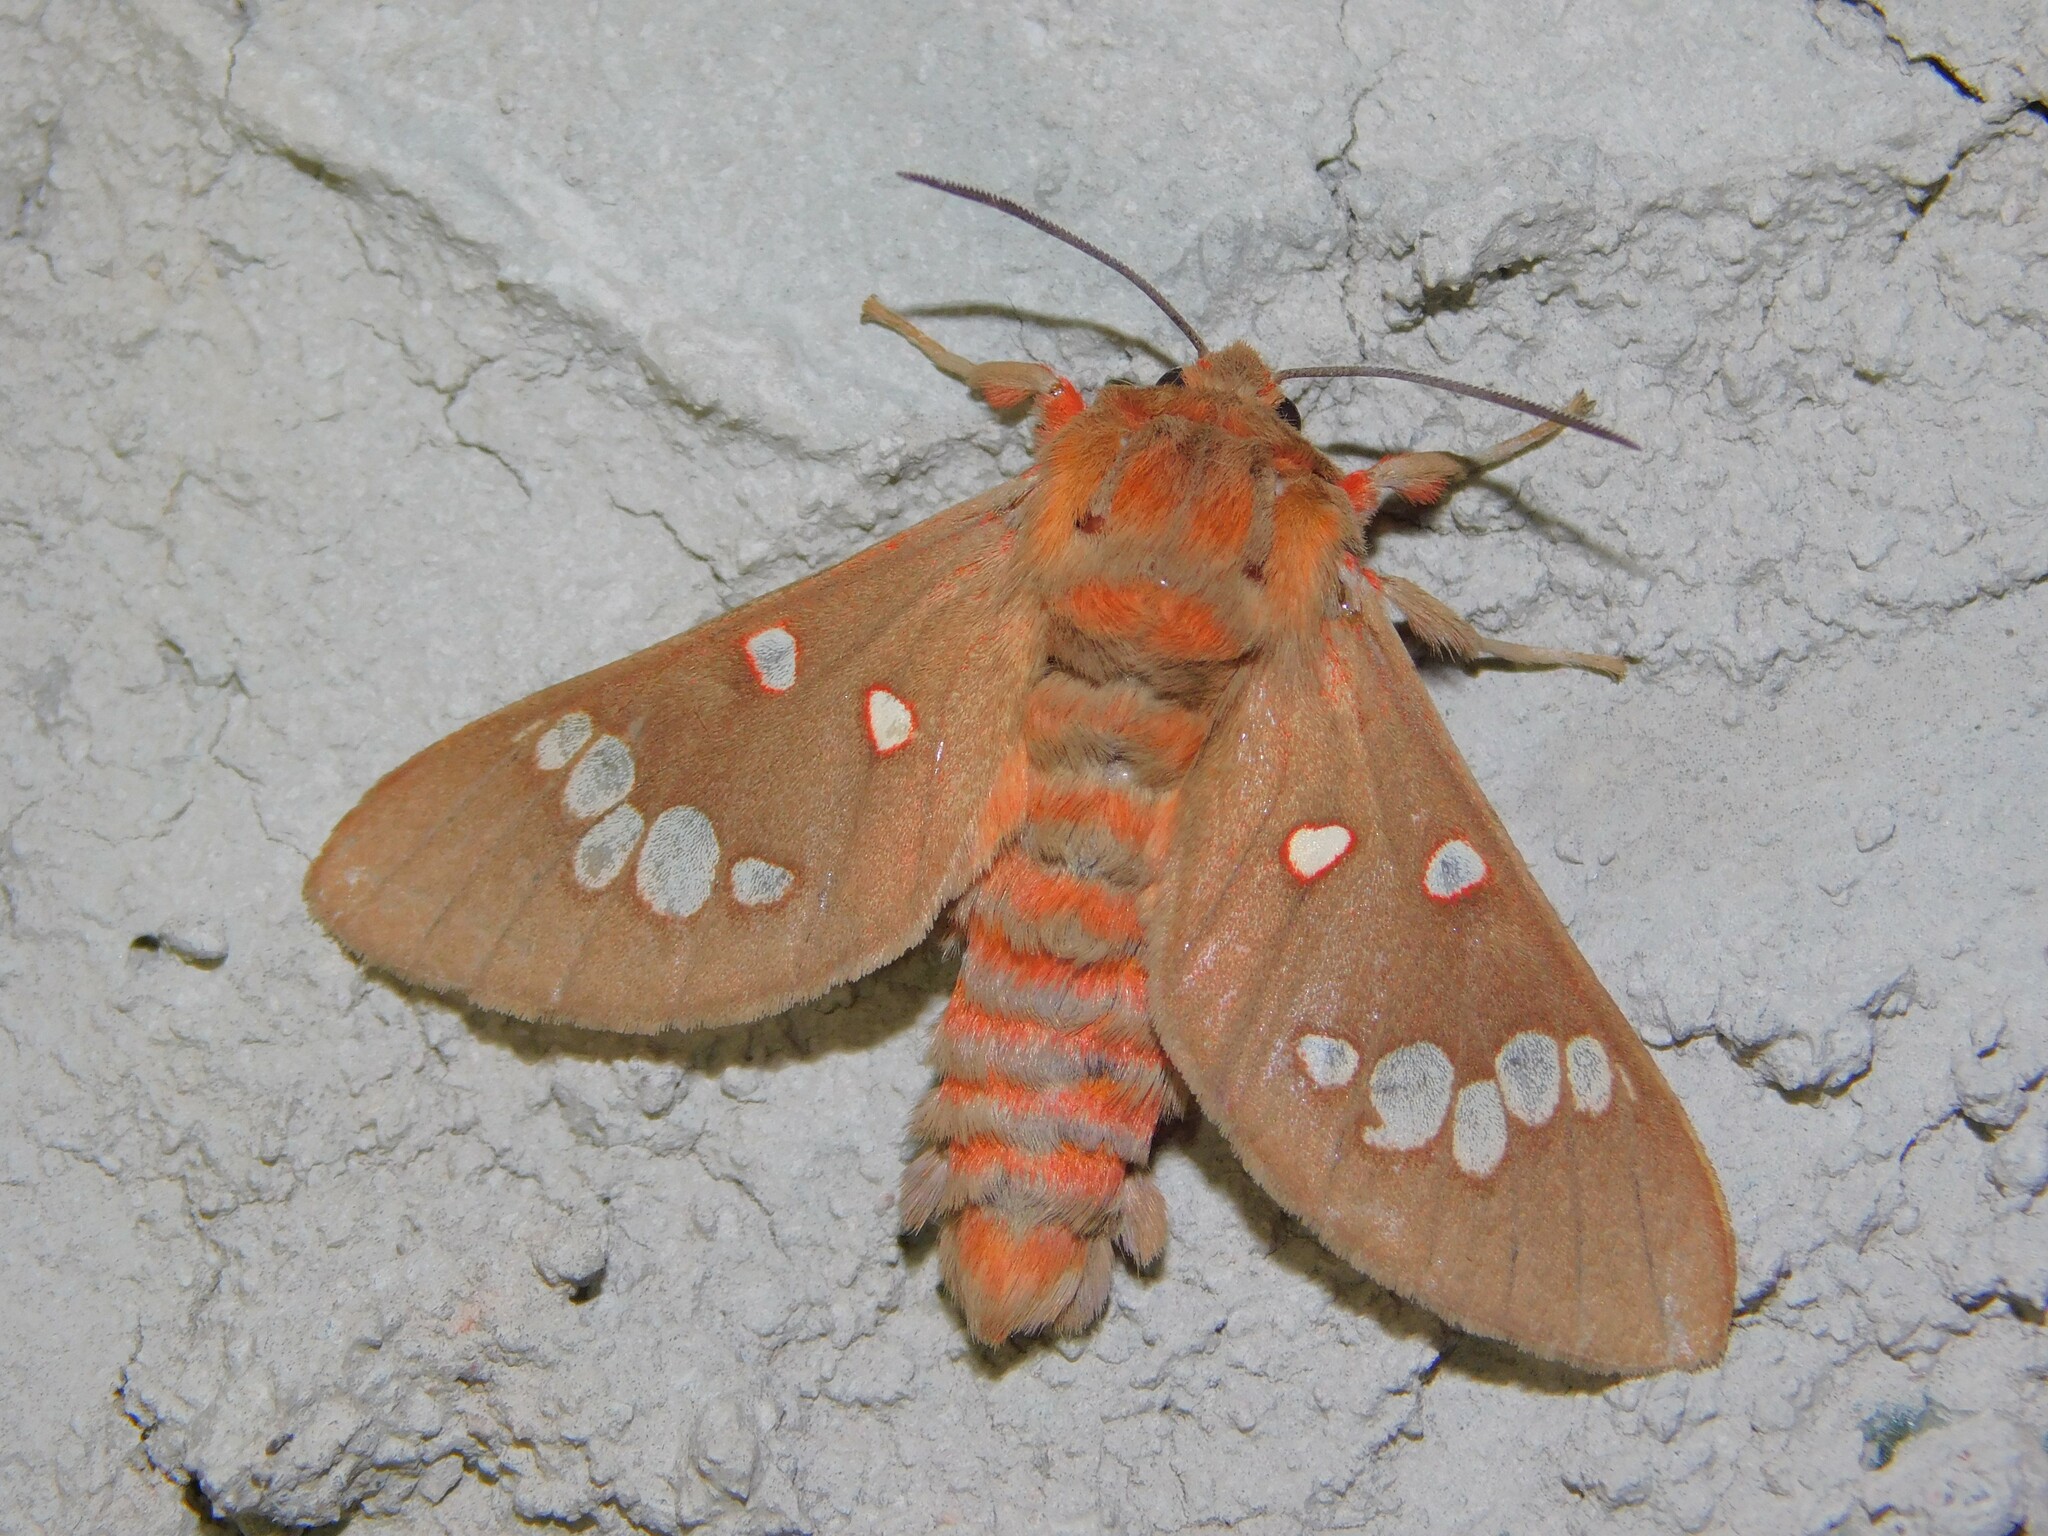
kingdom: Animalia
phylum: Arthropoda
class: Insecta
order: Lepidoptera
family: Erebidae
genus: Balacra
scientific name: Balacra preussi
